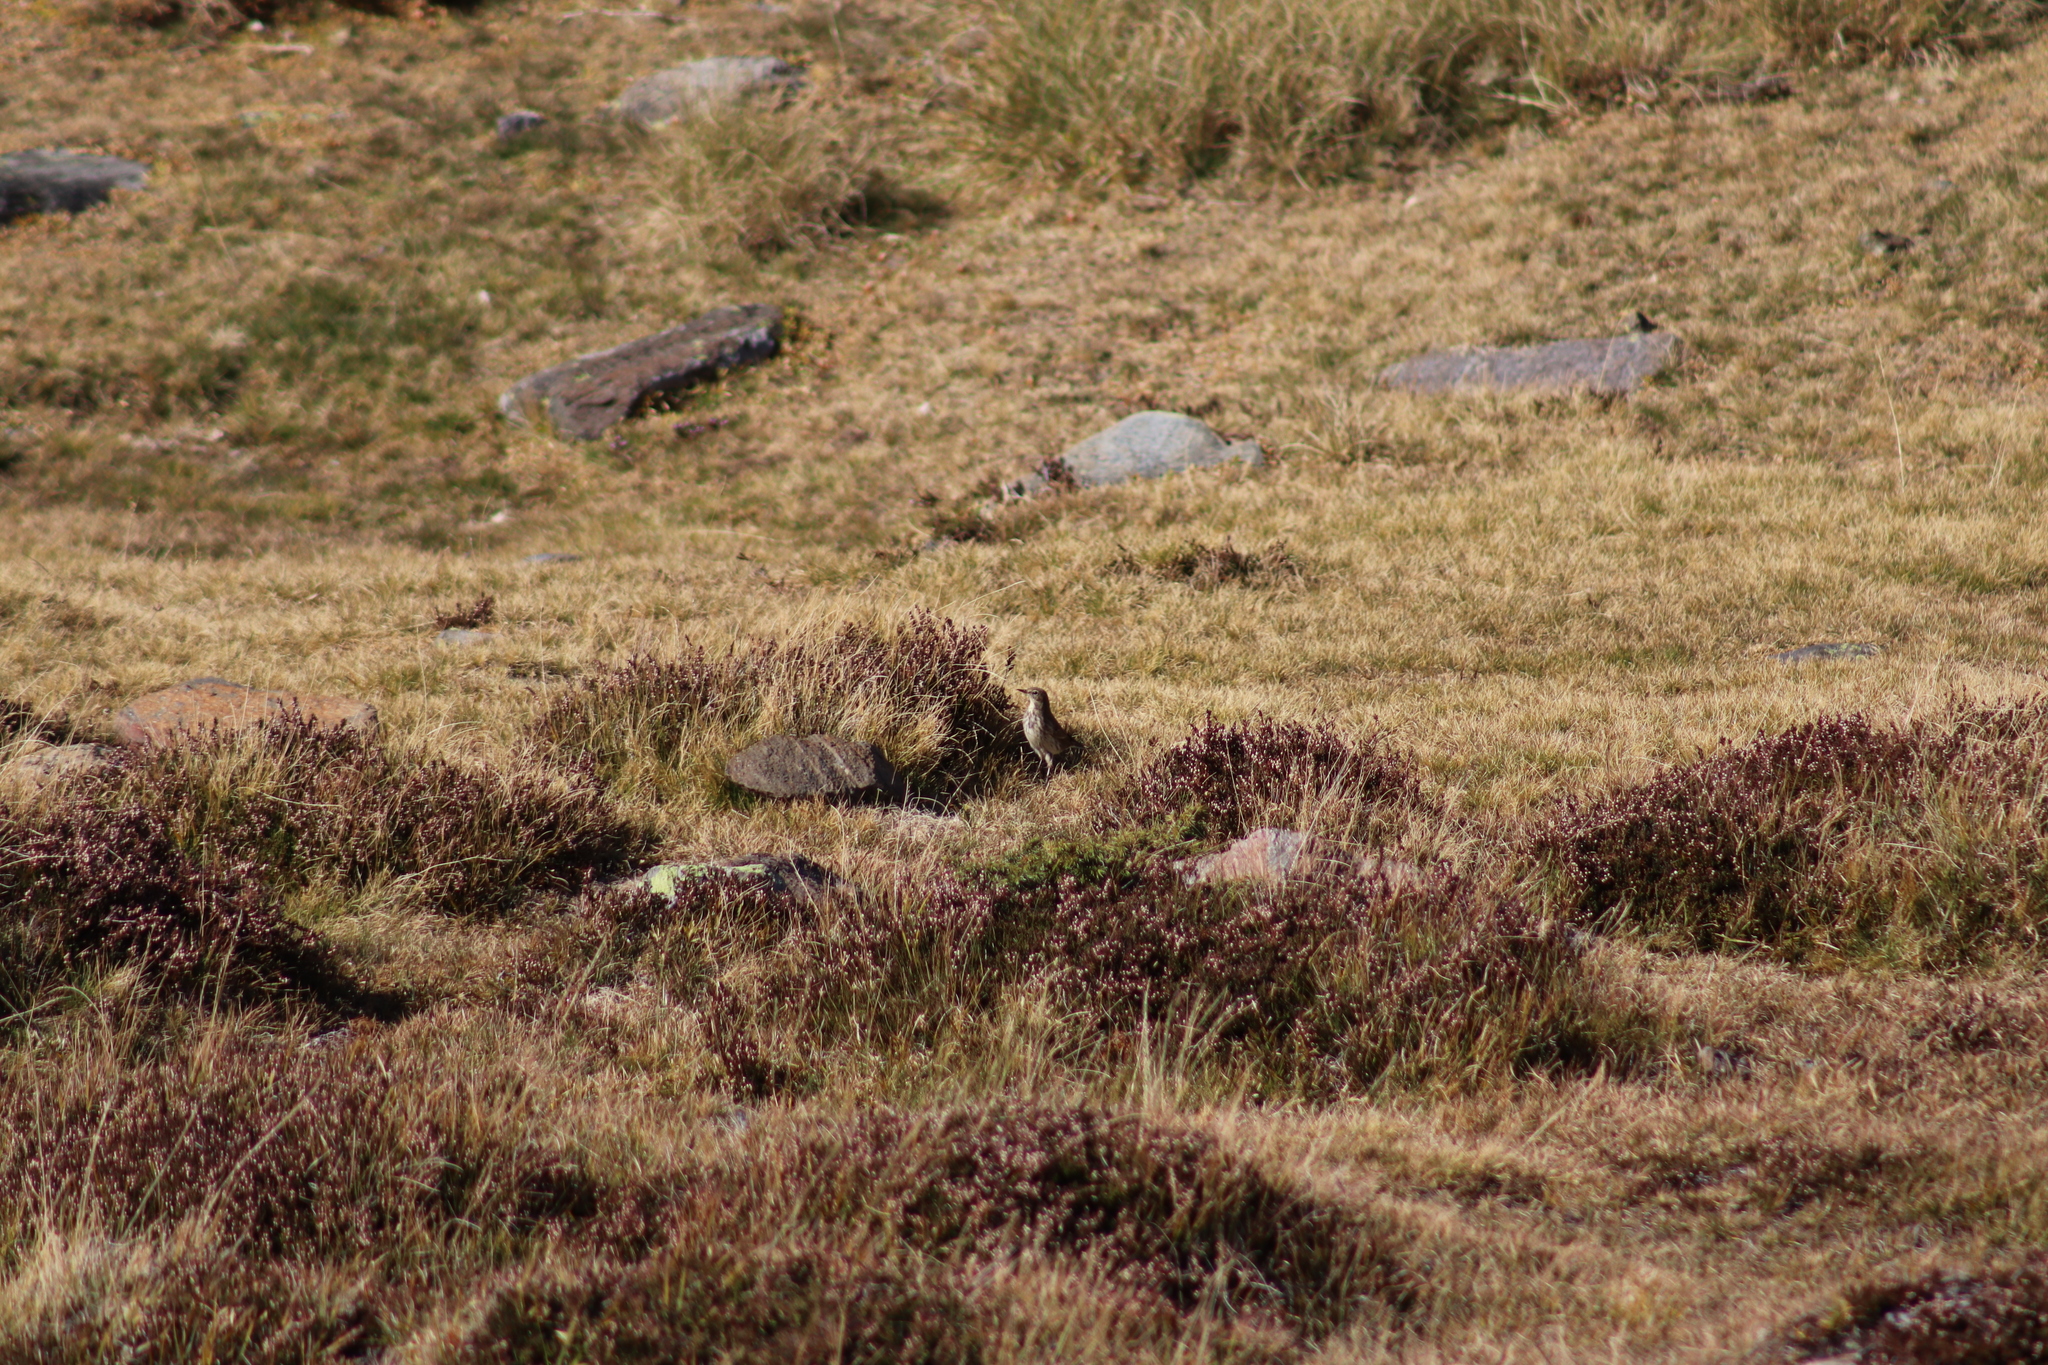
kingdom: Animalia
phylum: Chordata
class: Aves
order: Passeriformes
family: Motacillidae
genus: Anthus
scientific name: Anthus spinoletta
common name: Water pipit
